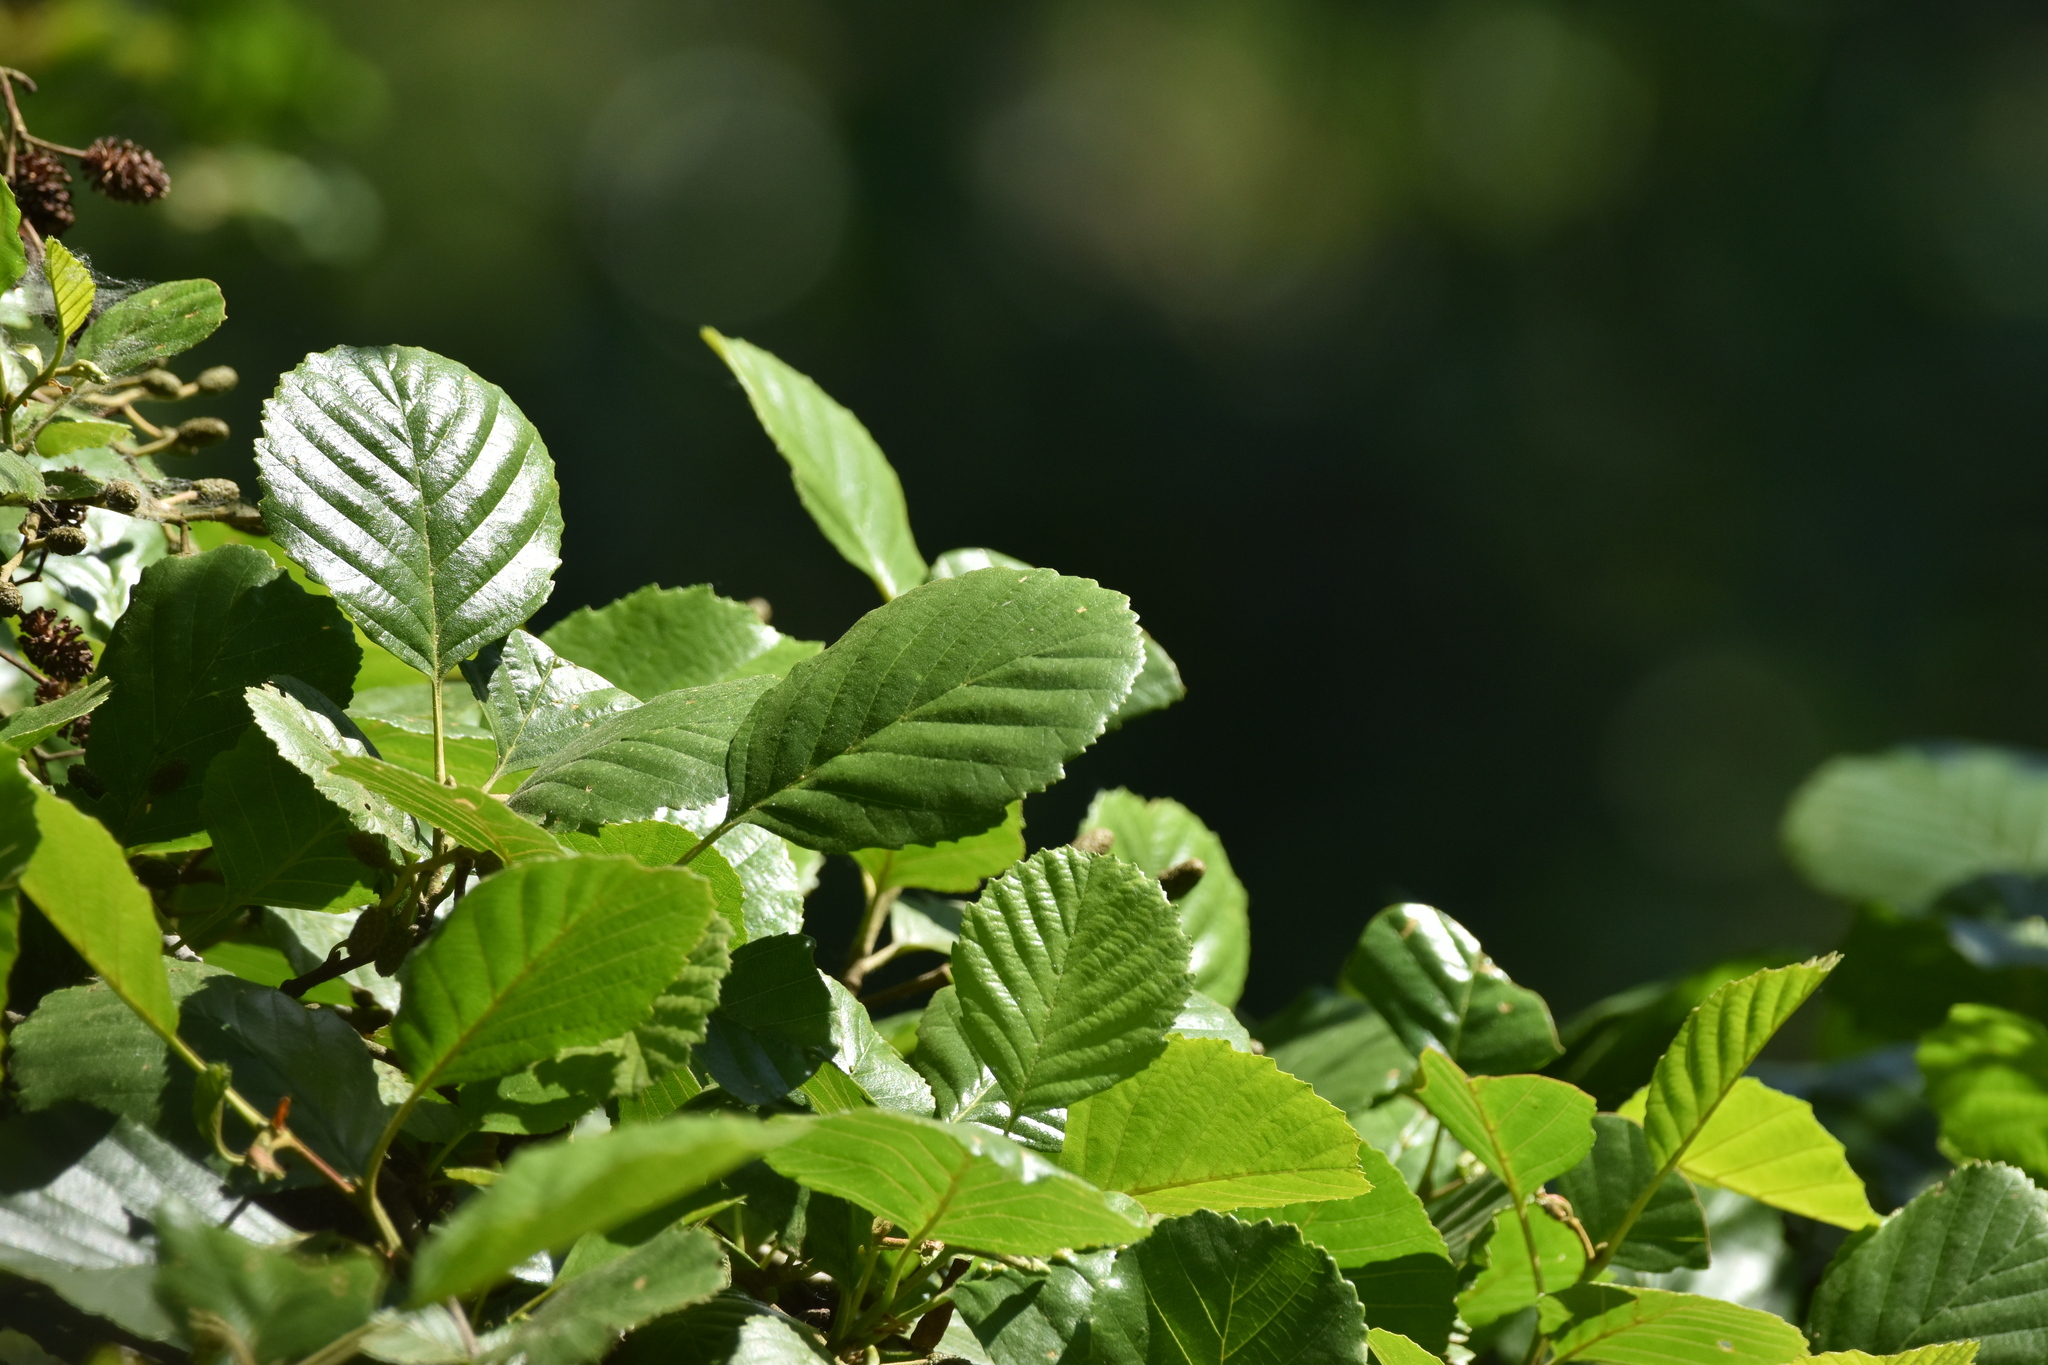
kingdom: Plantae
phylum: Tracheophyta
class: Magnoliopsida
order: Fagales
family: Betulaceae
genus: Alnus
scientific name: Alnus glutinosa
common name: Black alder
